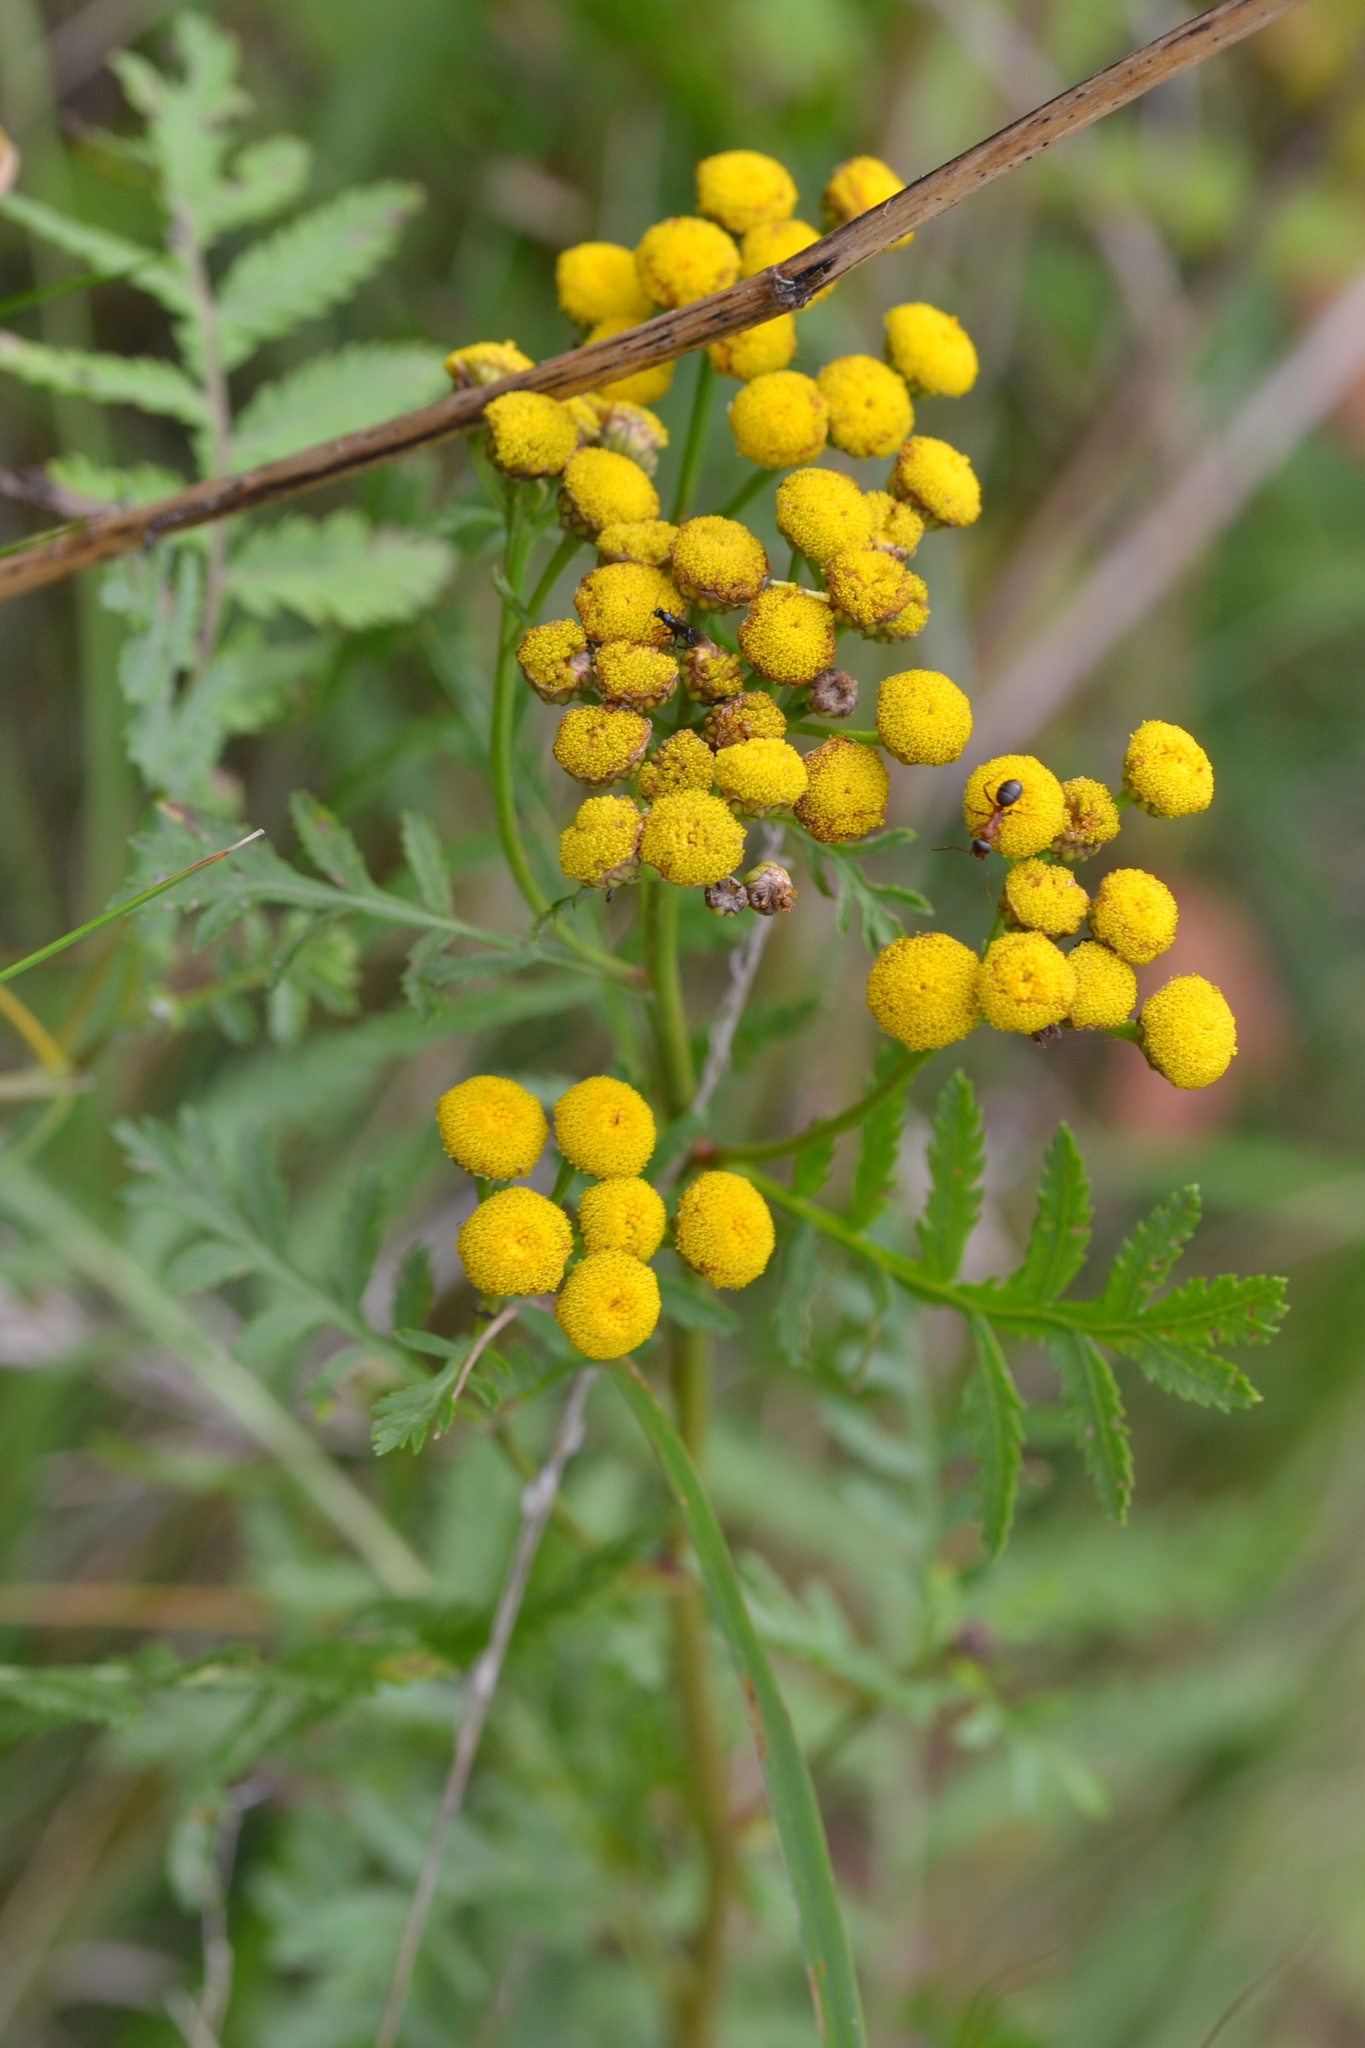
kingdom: Plantae
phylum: Tracheophyta
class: Magnoliopsida
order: Asterales
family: Asteraceae
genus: Tanacetum
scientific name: Tanacetum vulgare
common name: Common tansy
